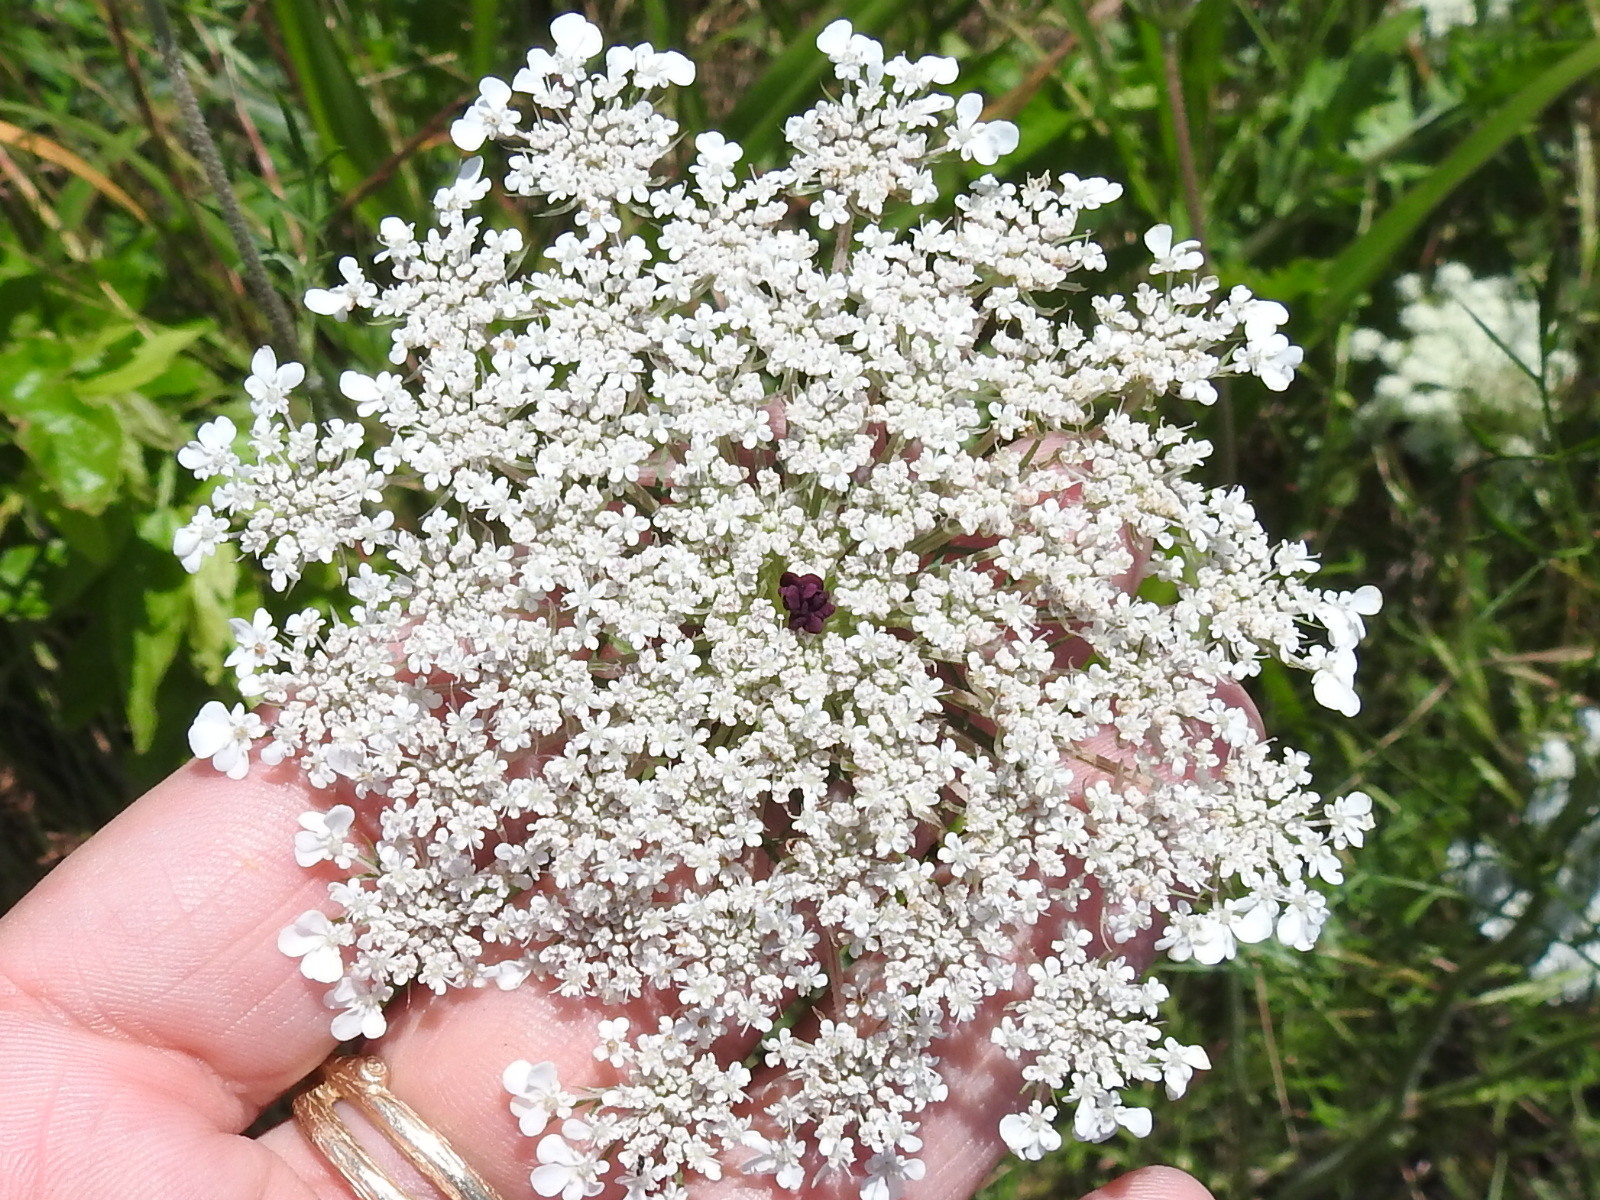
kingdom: Plantae
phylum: Tracheophyta
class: Magnoliopsida
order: Apiales
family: Apiaceae
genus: Daucus
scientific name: Daucus carota
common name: Wild carrot
